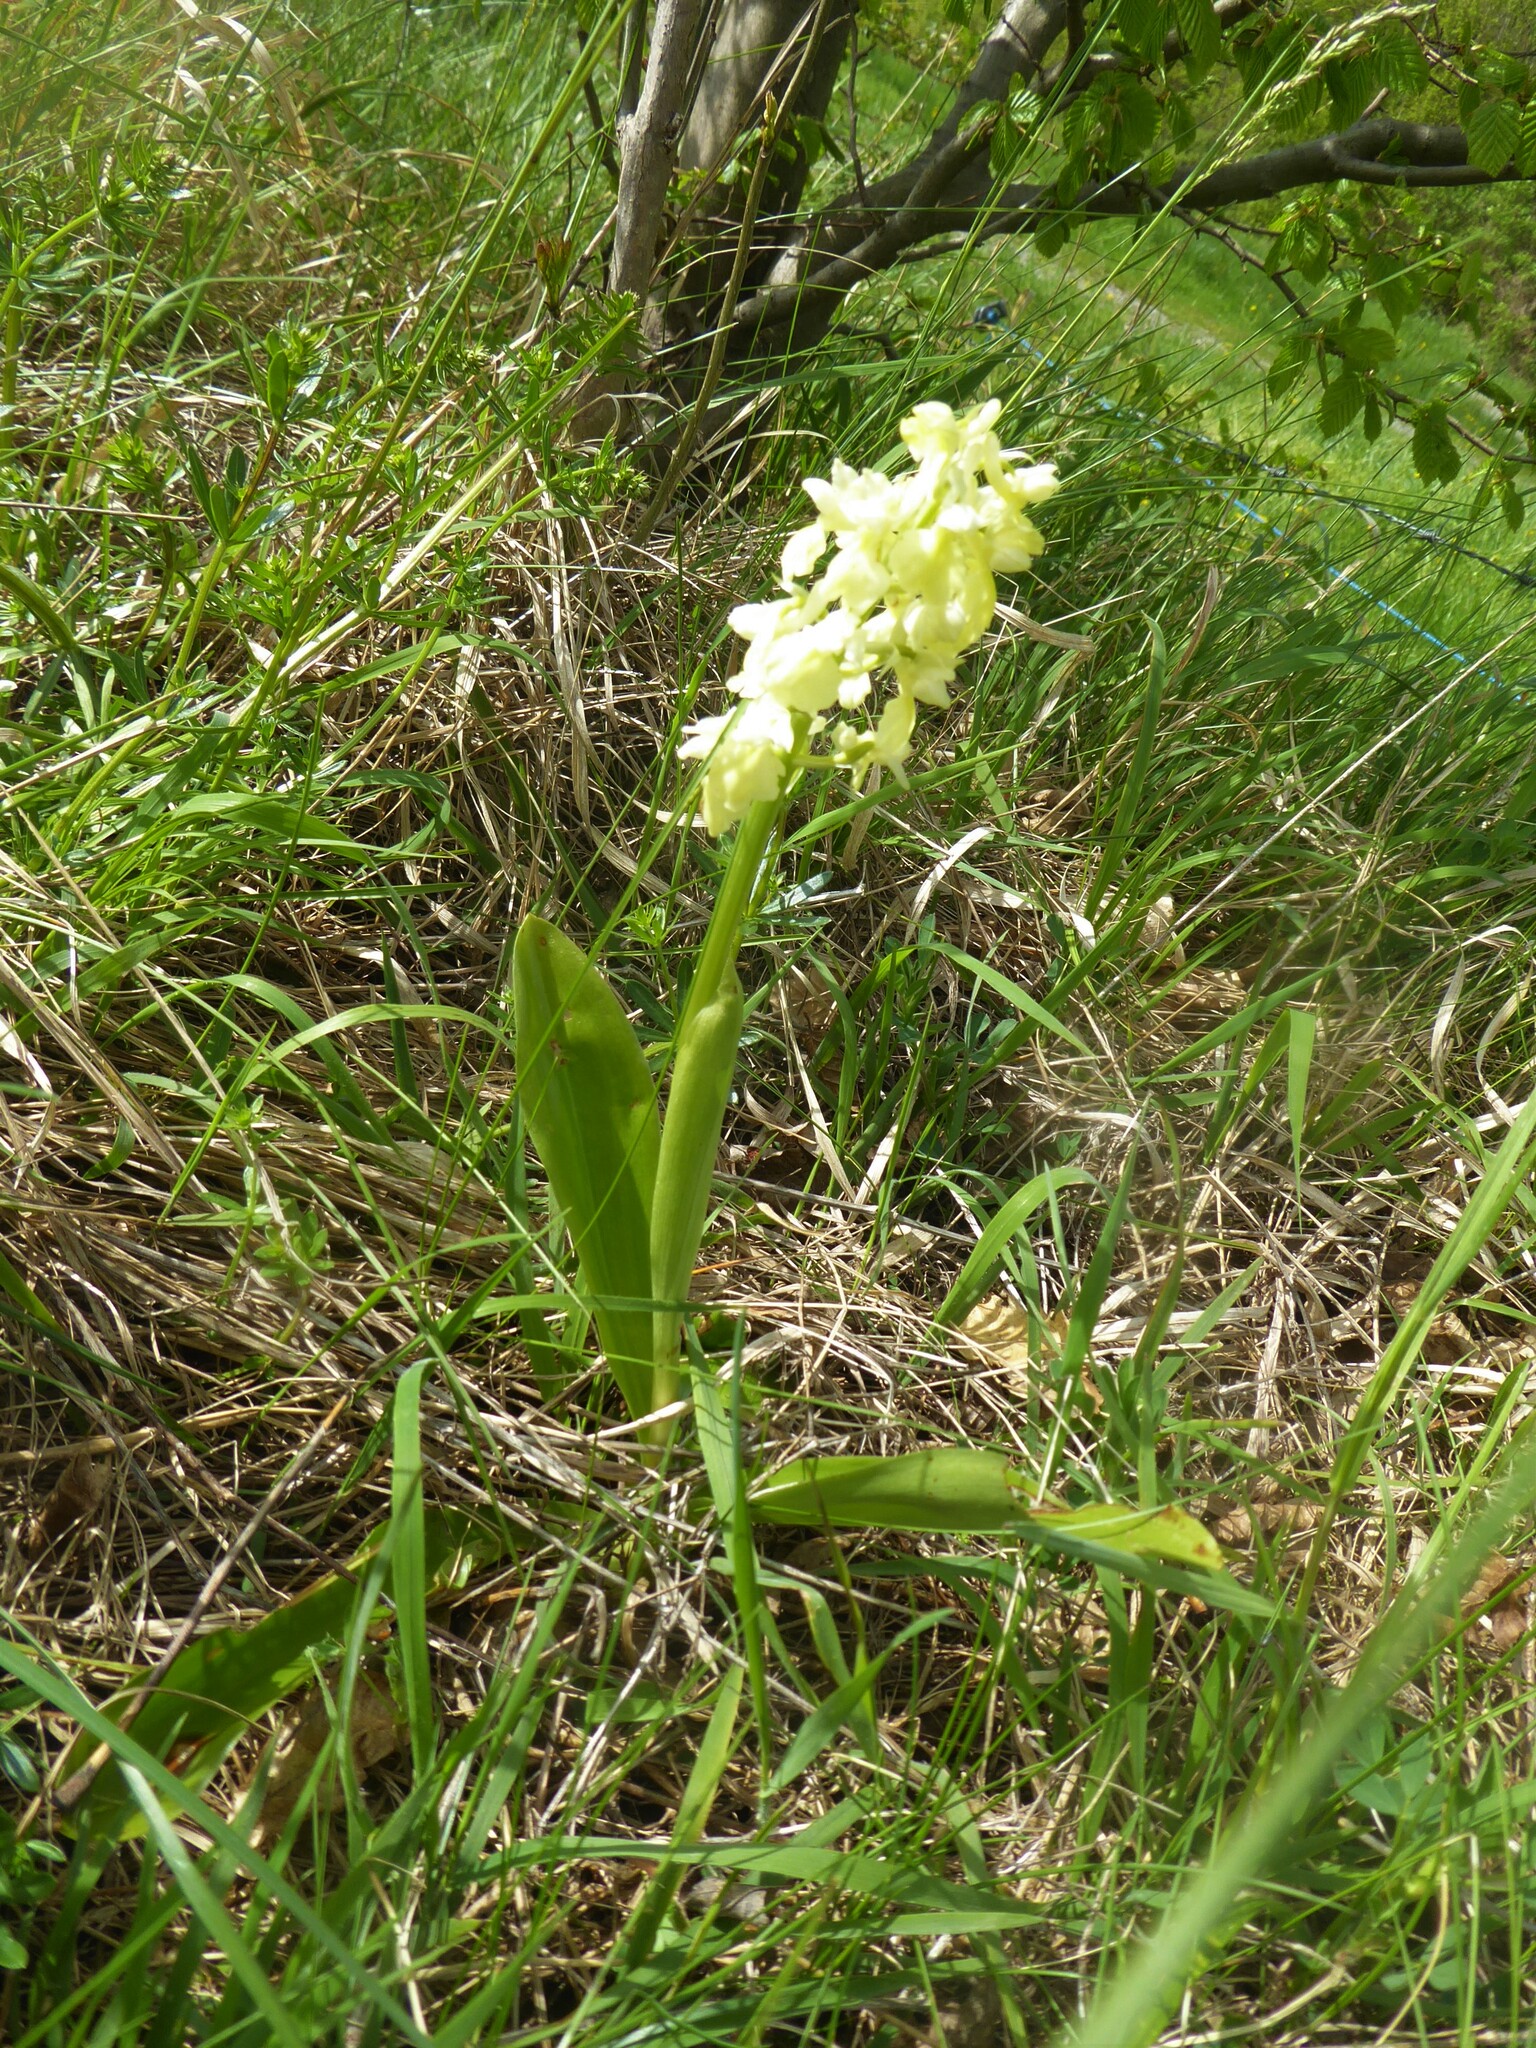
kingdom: Plantae
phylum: Tracheophyta
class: Liliopsida
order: Asparagales
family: Orchidaceae
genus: Orchis
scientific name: Orchis pallens
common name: Pale-flowered orchid
